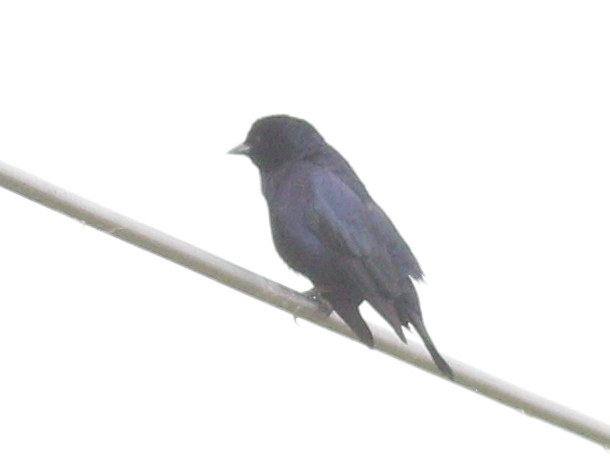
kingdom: Animalia
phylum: Chordata
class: Aves
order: Passeriformes
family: Icteridae
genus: Molothrus
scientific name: Molothrus bonariensis
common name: Shiny cowbird
